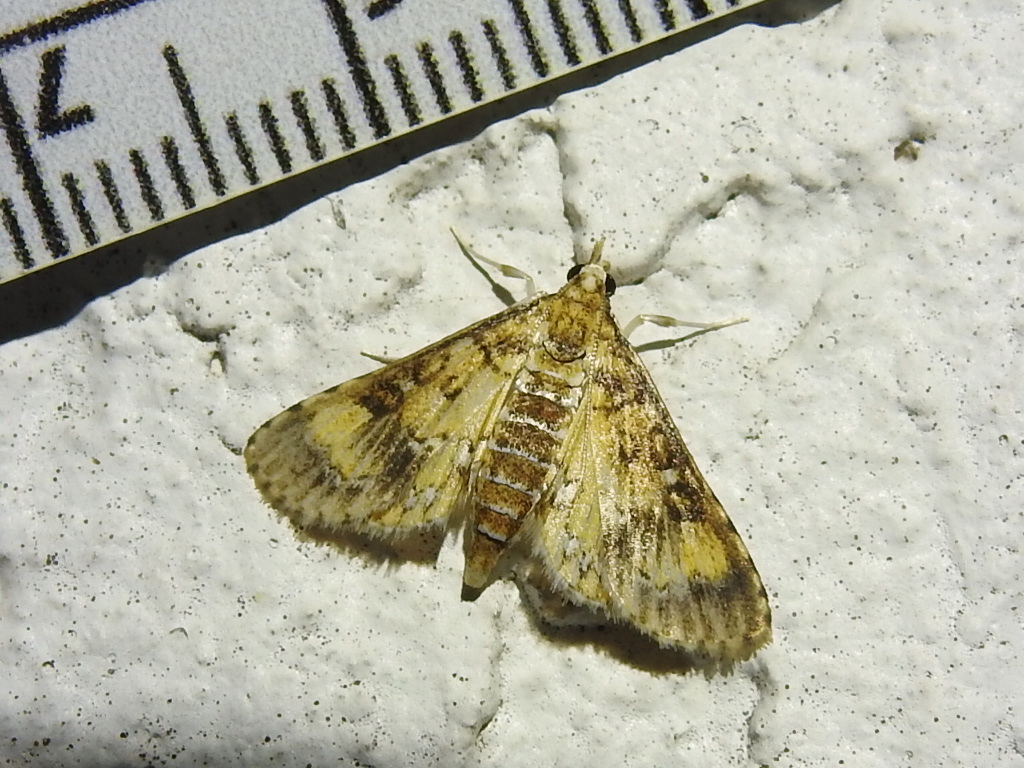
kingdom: Animalia
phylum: Arthropoda
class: Insecta
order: Lepidoptera
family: Crambidae
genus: Niphograpta
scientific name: Niphograpta albiguttalis
